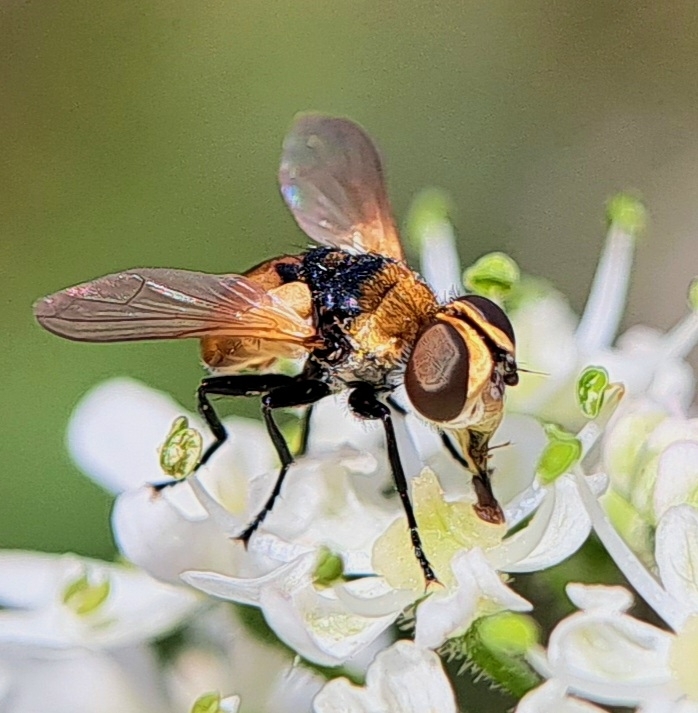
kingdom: Animalia
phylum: Arthropoda
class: Insecta
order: Diptera
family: Tachinidae
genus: Cistogaster
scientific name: Cistogaster globosa
